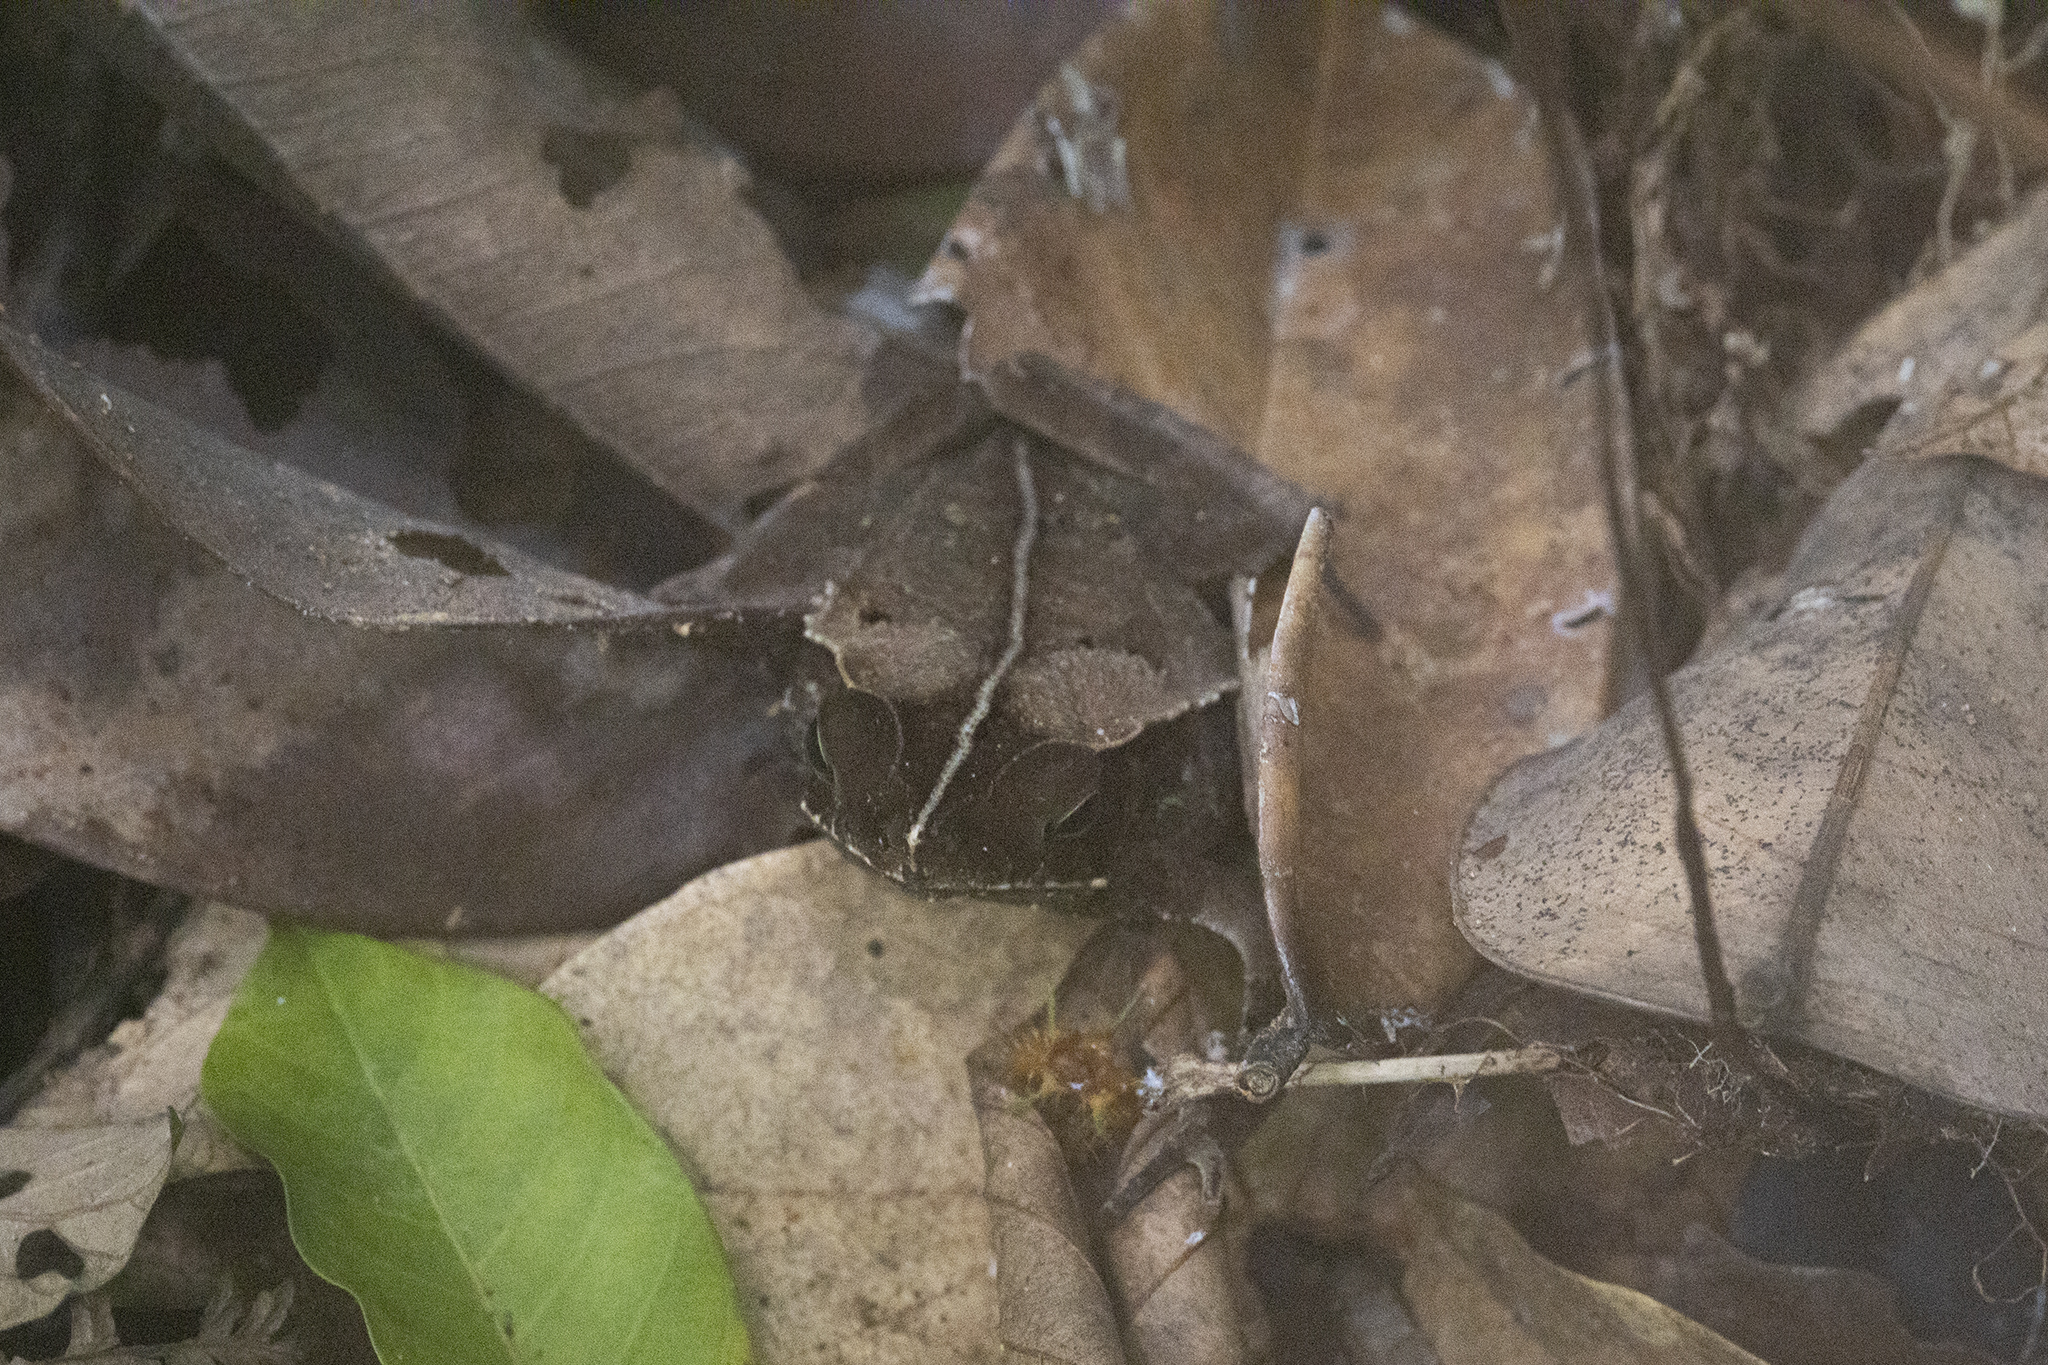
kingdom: Animalia
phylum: Chordata
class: Amphibia
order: Anura
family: Bufonidae
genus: Rhinella
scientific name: Rhinella margaritifera
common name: Mitred toad
